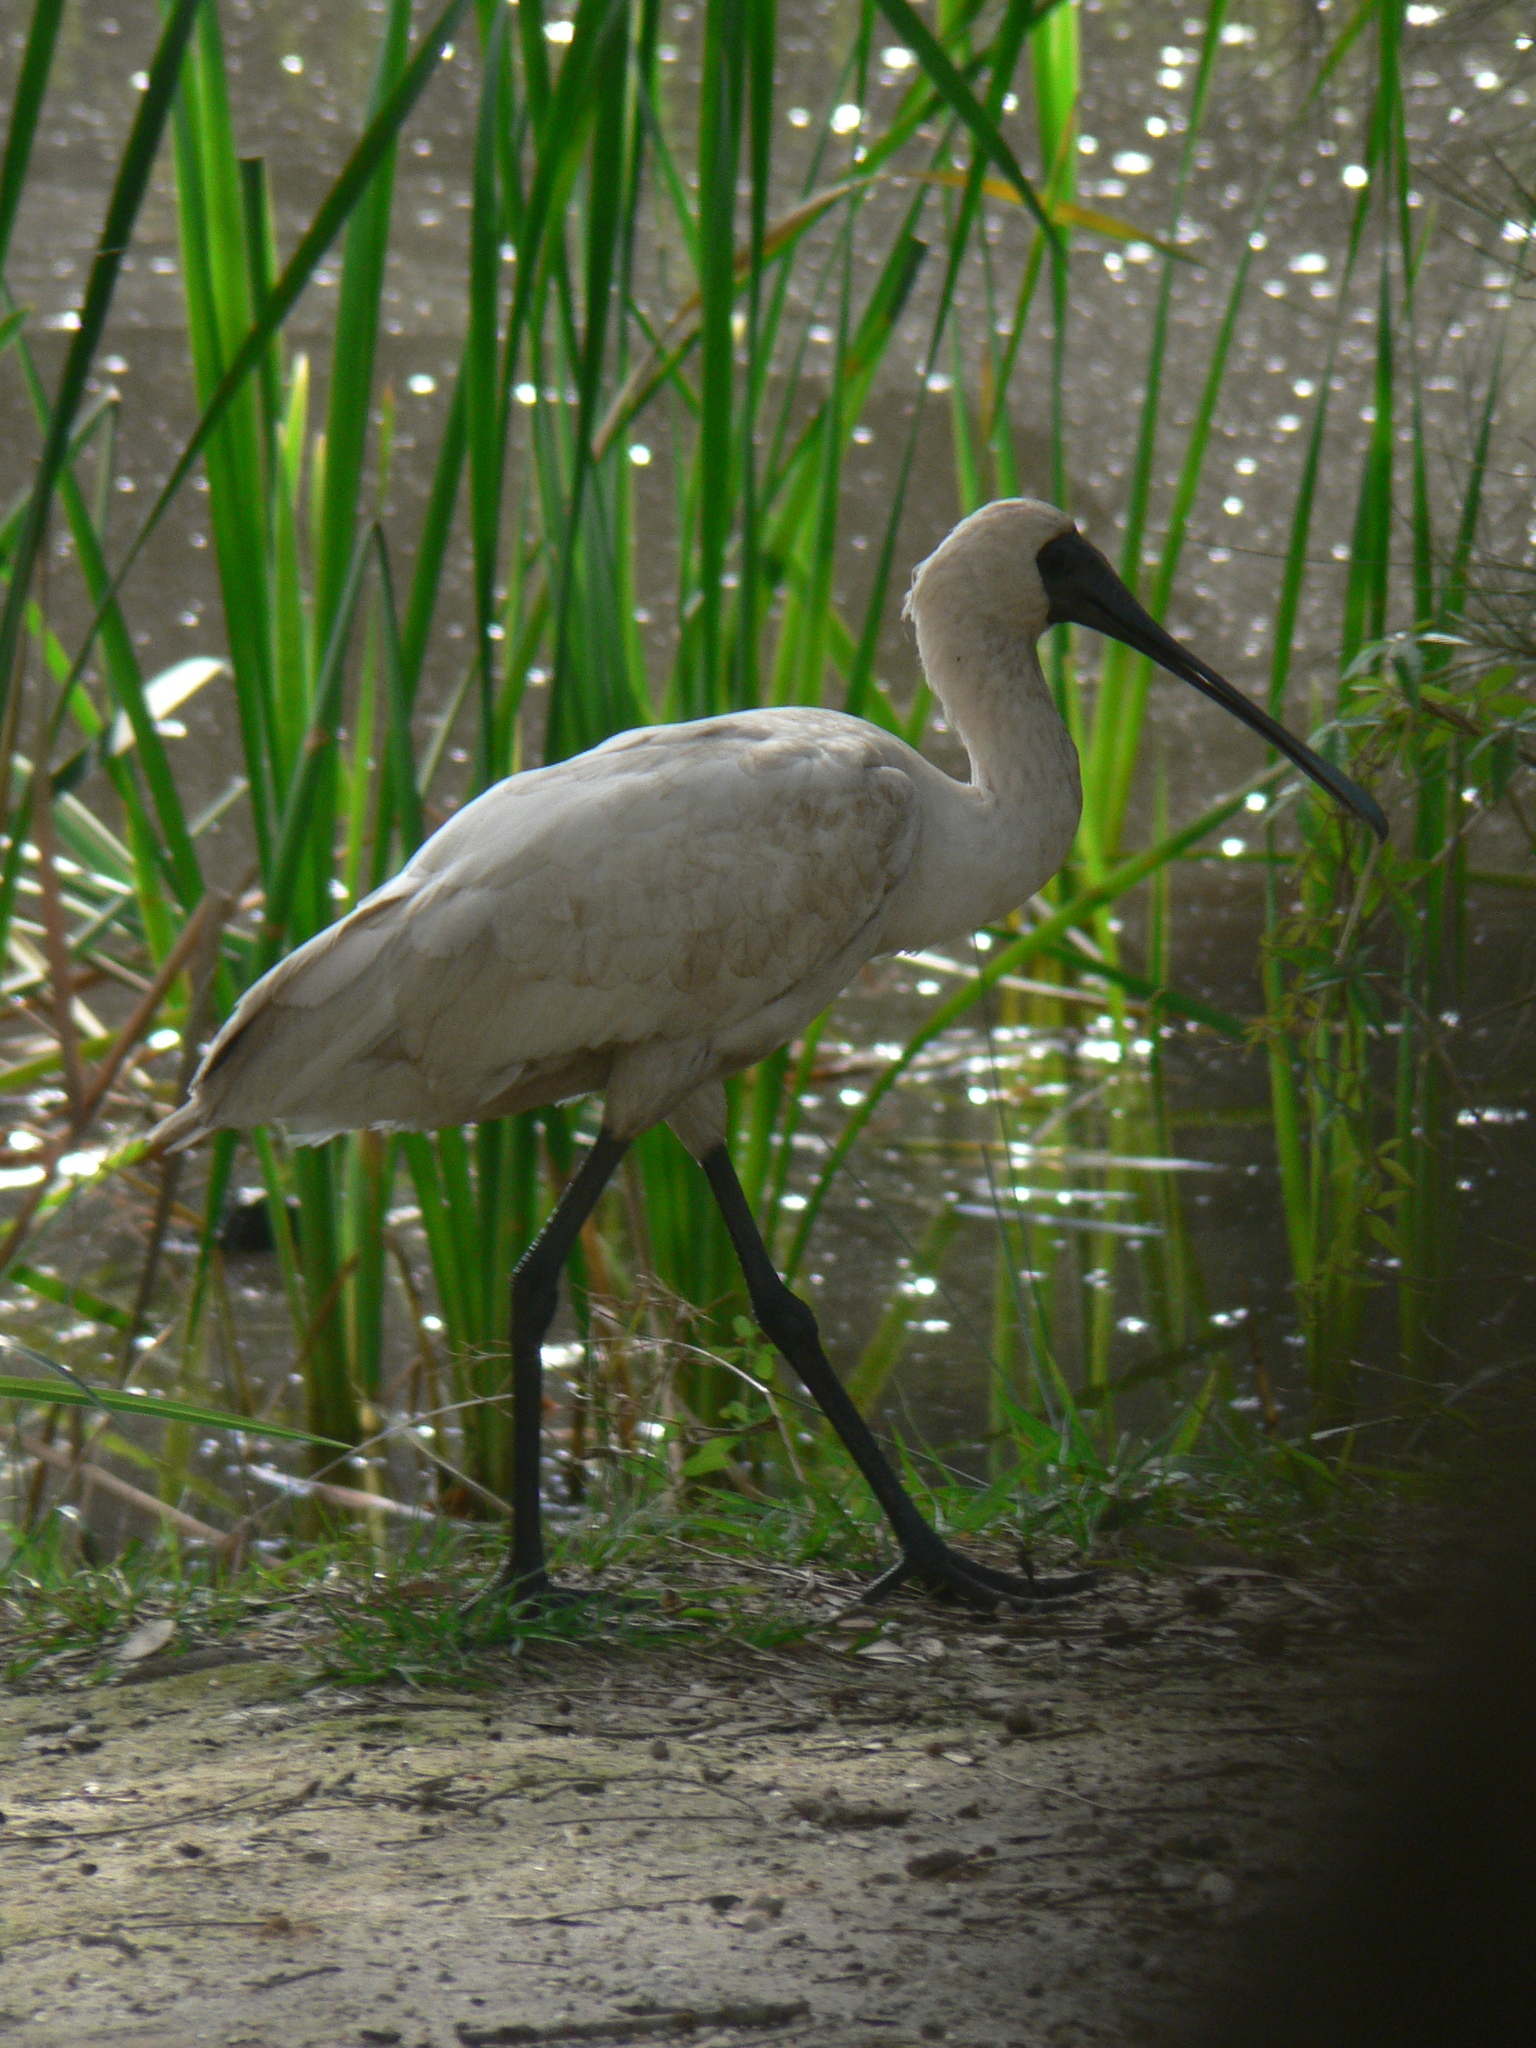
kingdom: Animalia
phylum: Chordata
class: Aves
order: Pelecaniformes
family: Threskiornithidae
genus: Platalea
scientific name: Platalea regia
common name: Royal spoonbill
